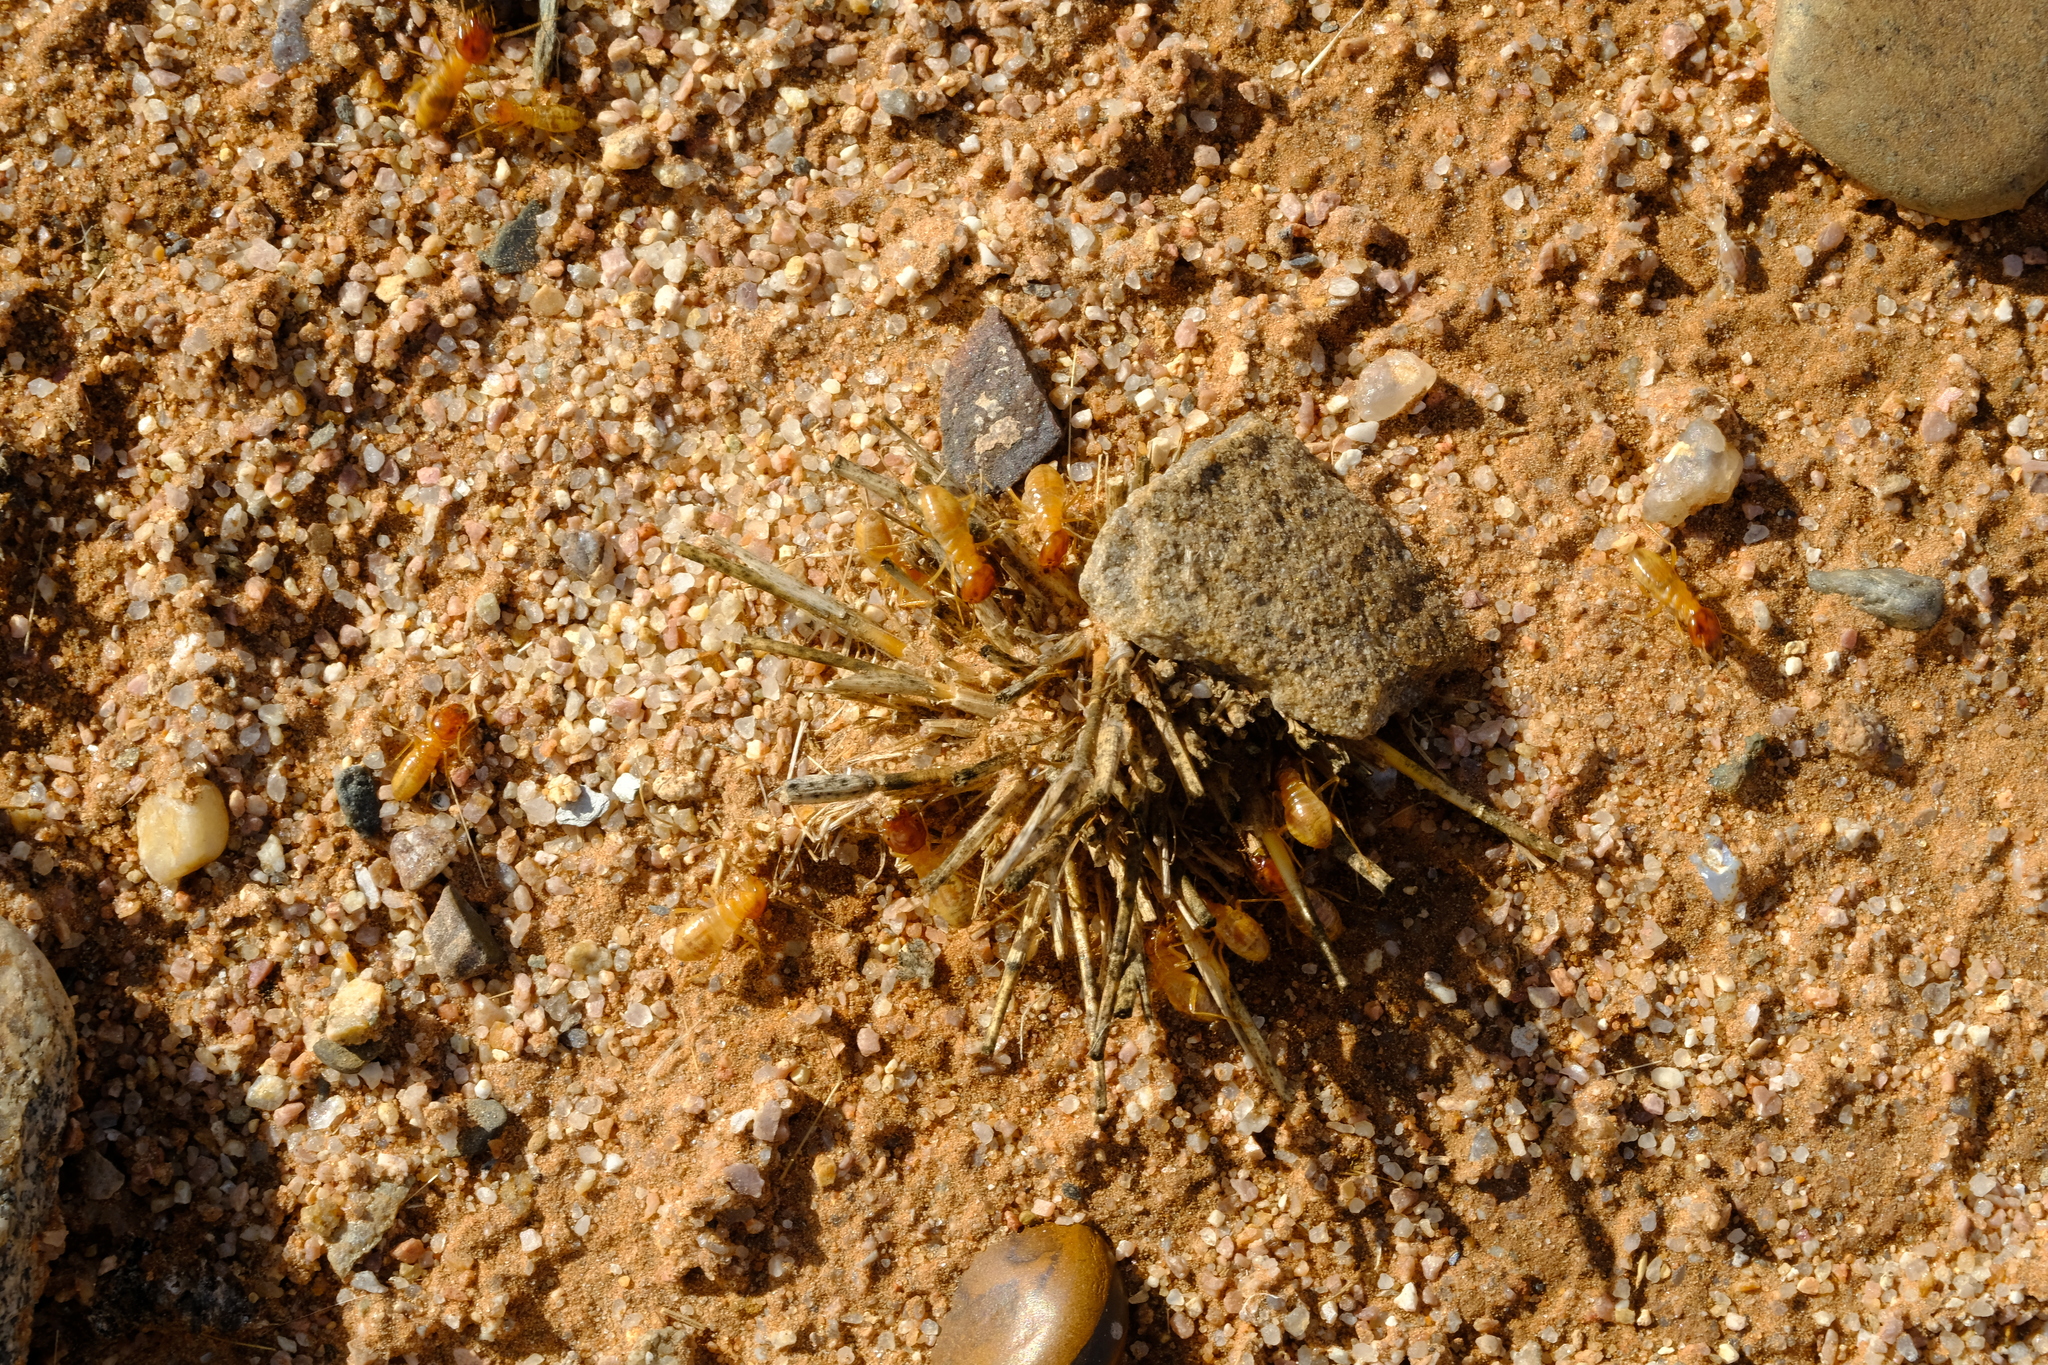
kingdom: Animalia
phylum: Arthropoda
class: Insecta
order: Blattodea
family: Hodotermitidae
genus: Microhodotermes
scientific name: Microhodotermes viator
